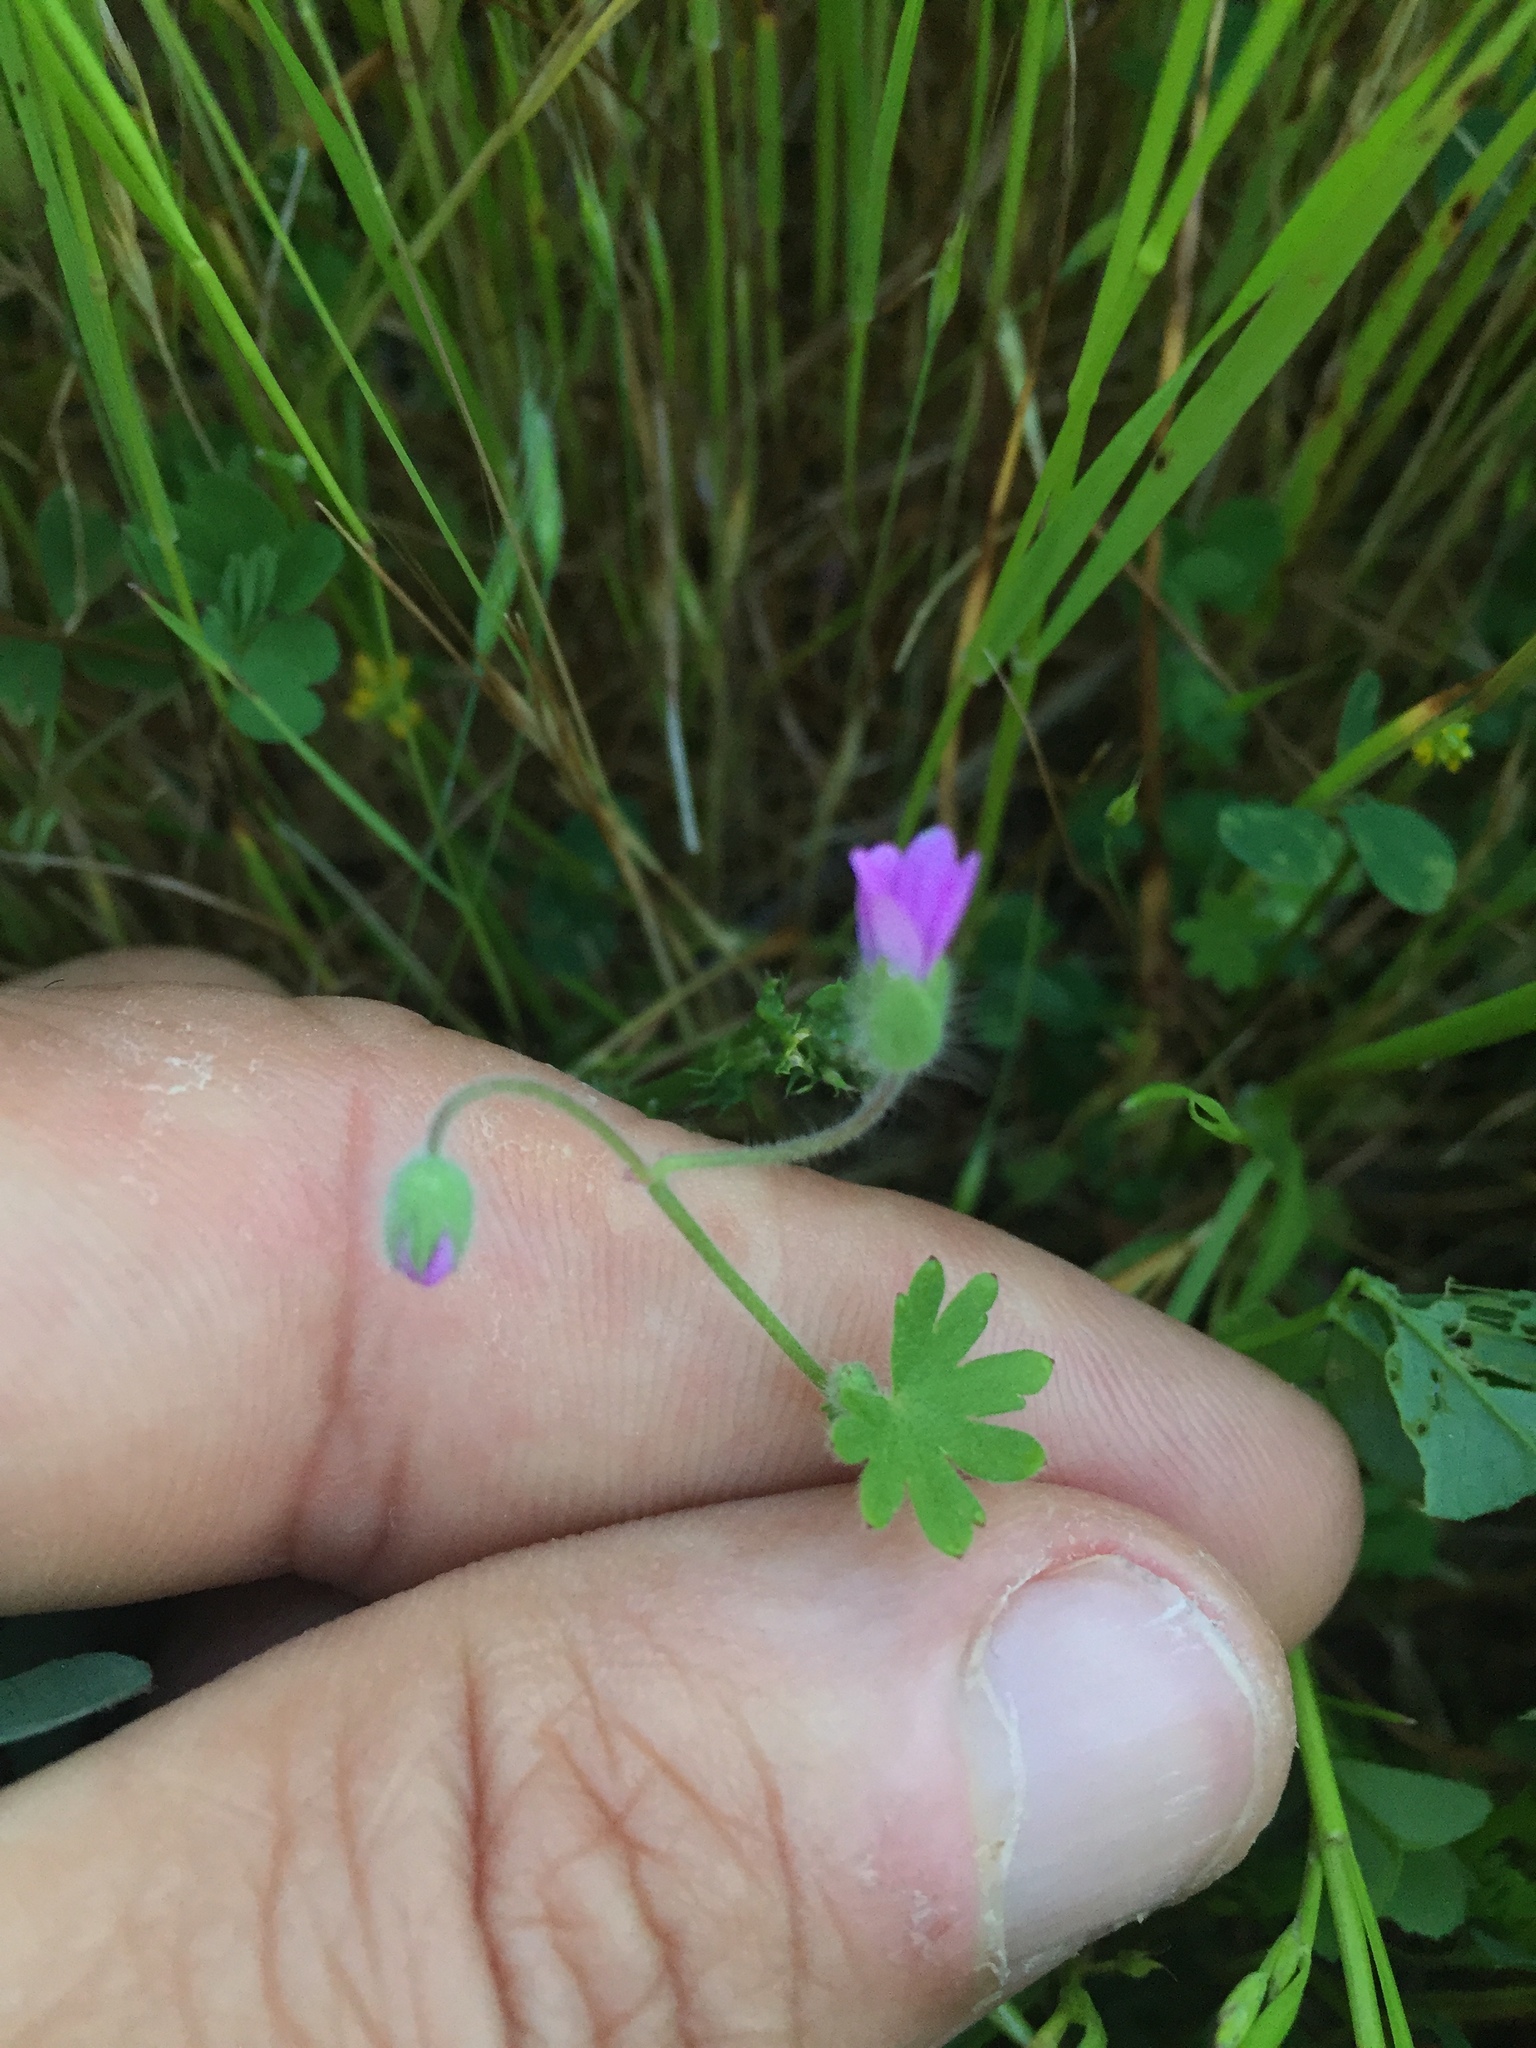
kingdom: Plantae
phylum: Tracheophyta
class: Magnoliopsida
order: Geraniales
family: Geraniaceae
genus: Geranium
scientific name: Geranium molle
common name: Dove's-foot crane's-bill
